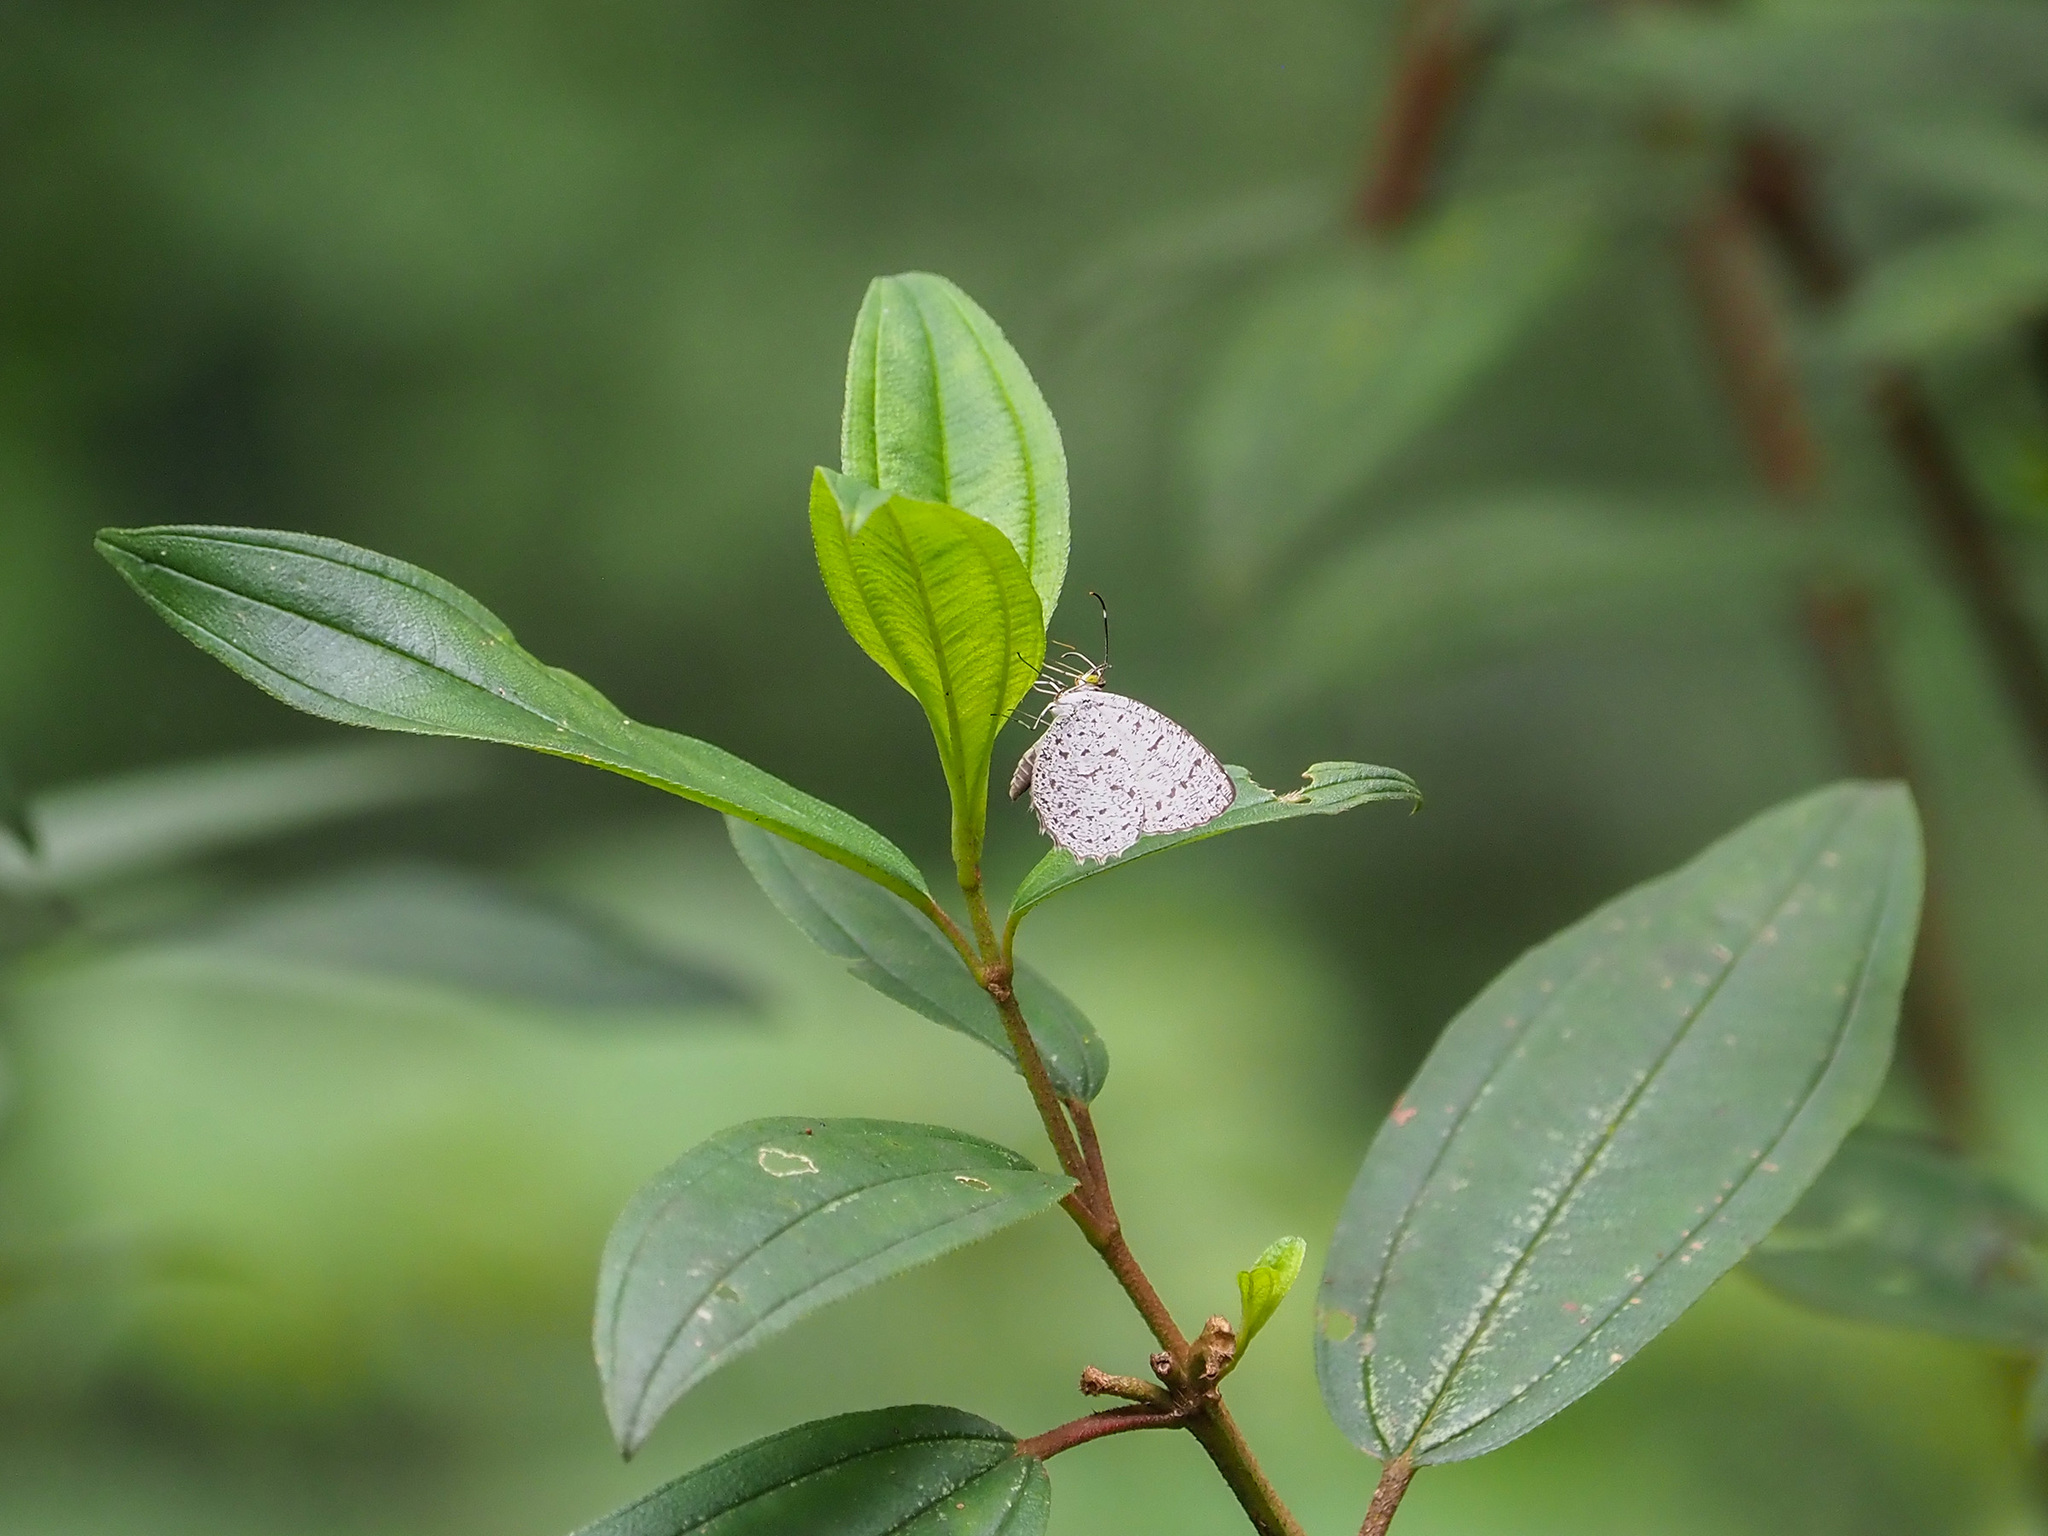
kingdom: Animalia
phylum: Arthropoda
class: Insecta
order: Lepidoptera
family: Lycaenidae
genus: Allotinus
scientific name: Allotinus unicolor
